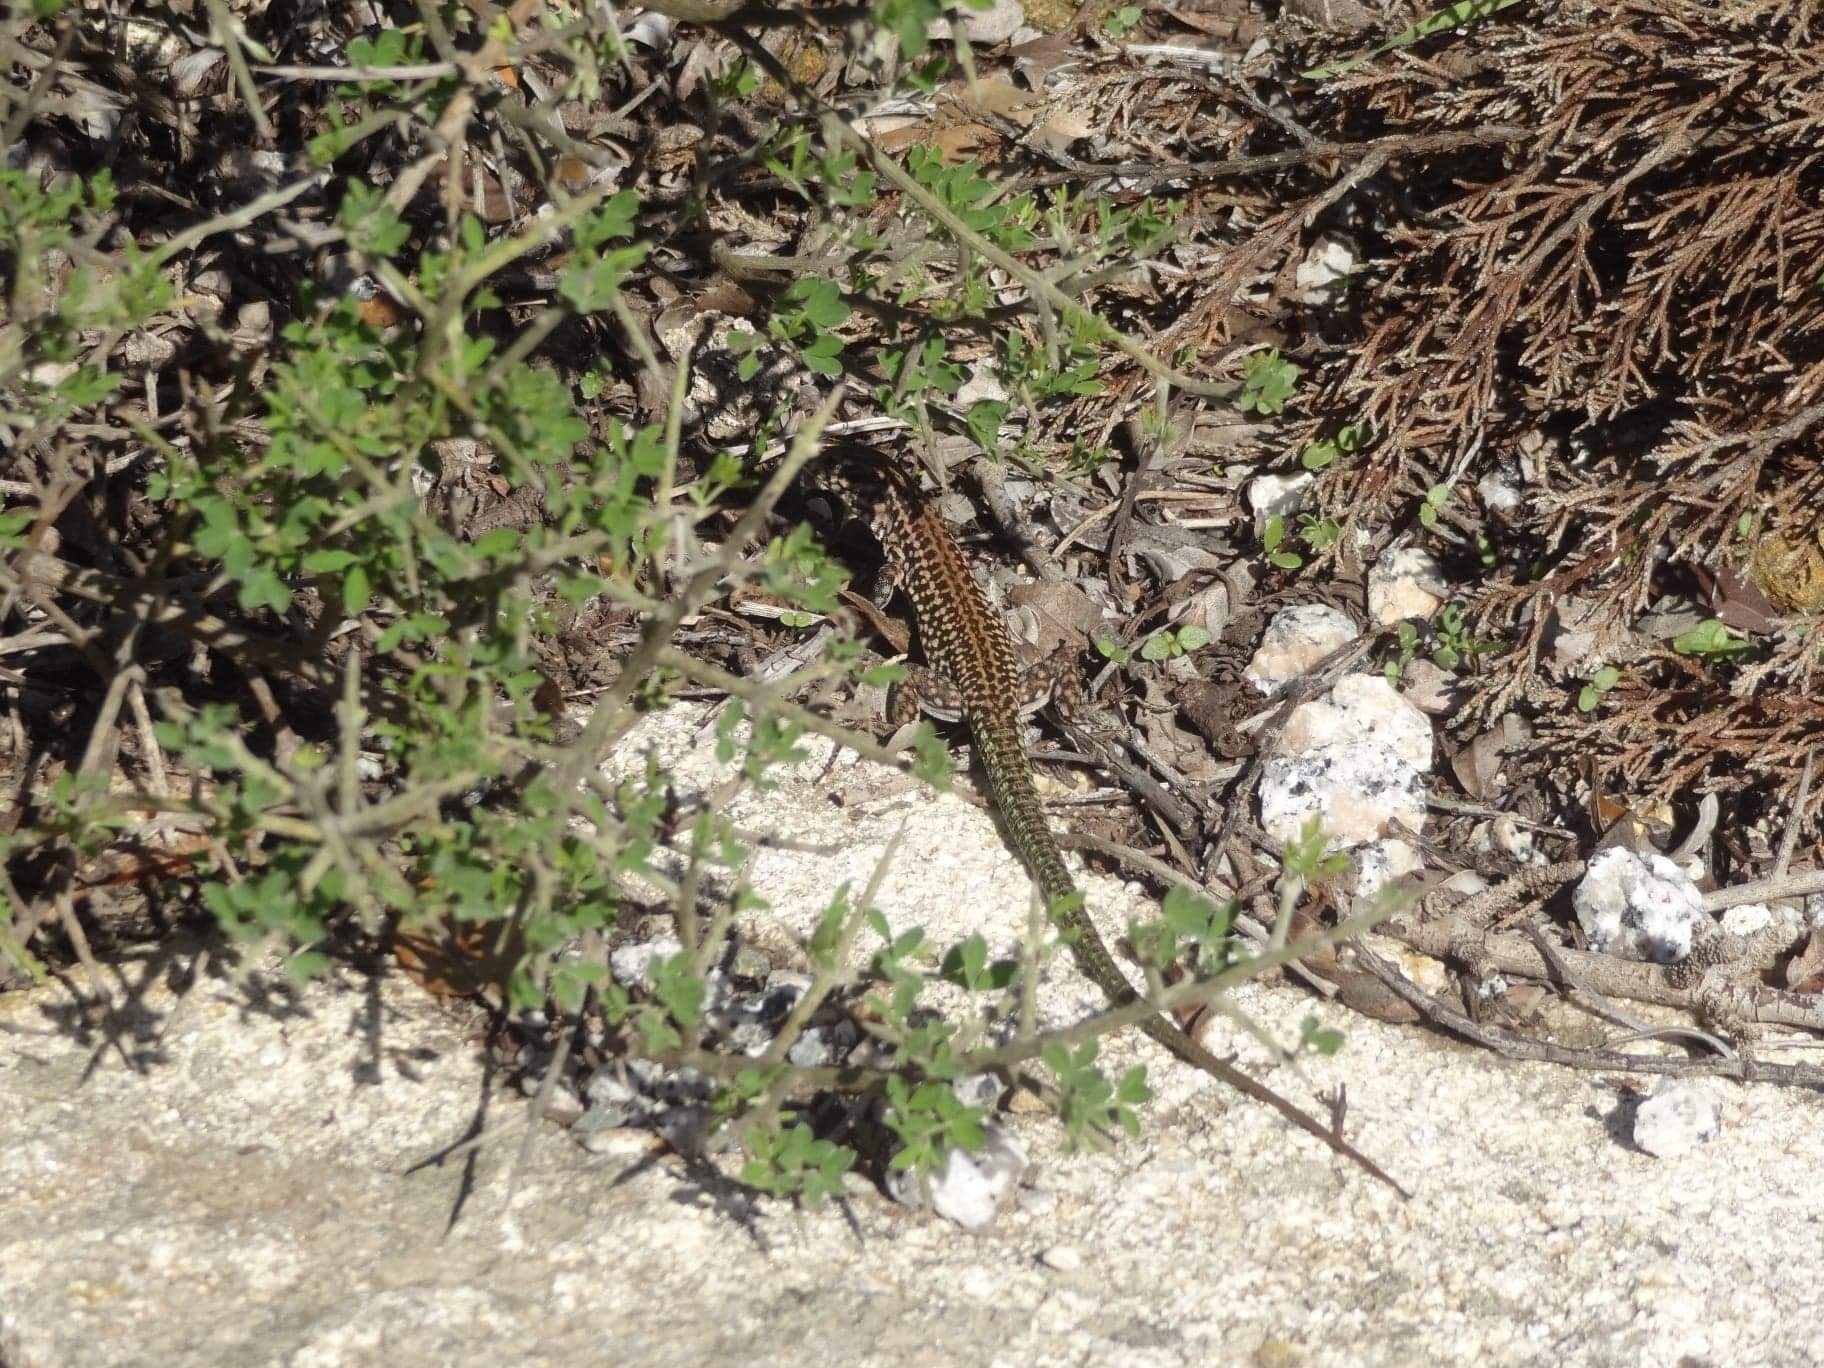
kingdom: Animalia
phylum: Chordata
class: Squamata
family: Lacertidae
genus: Podarcis
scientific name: Podarcis tiliguerta
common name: Tyrrhenian wall lizard
